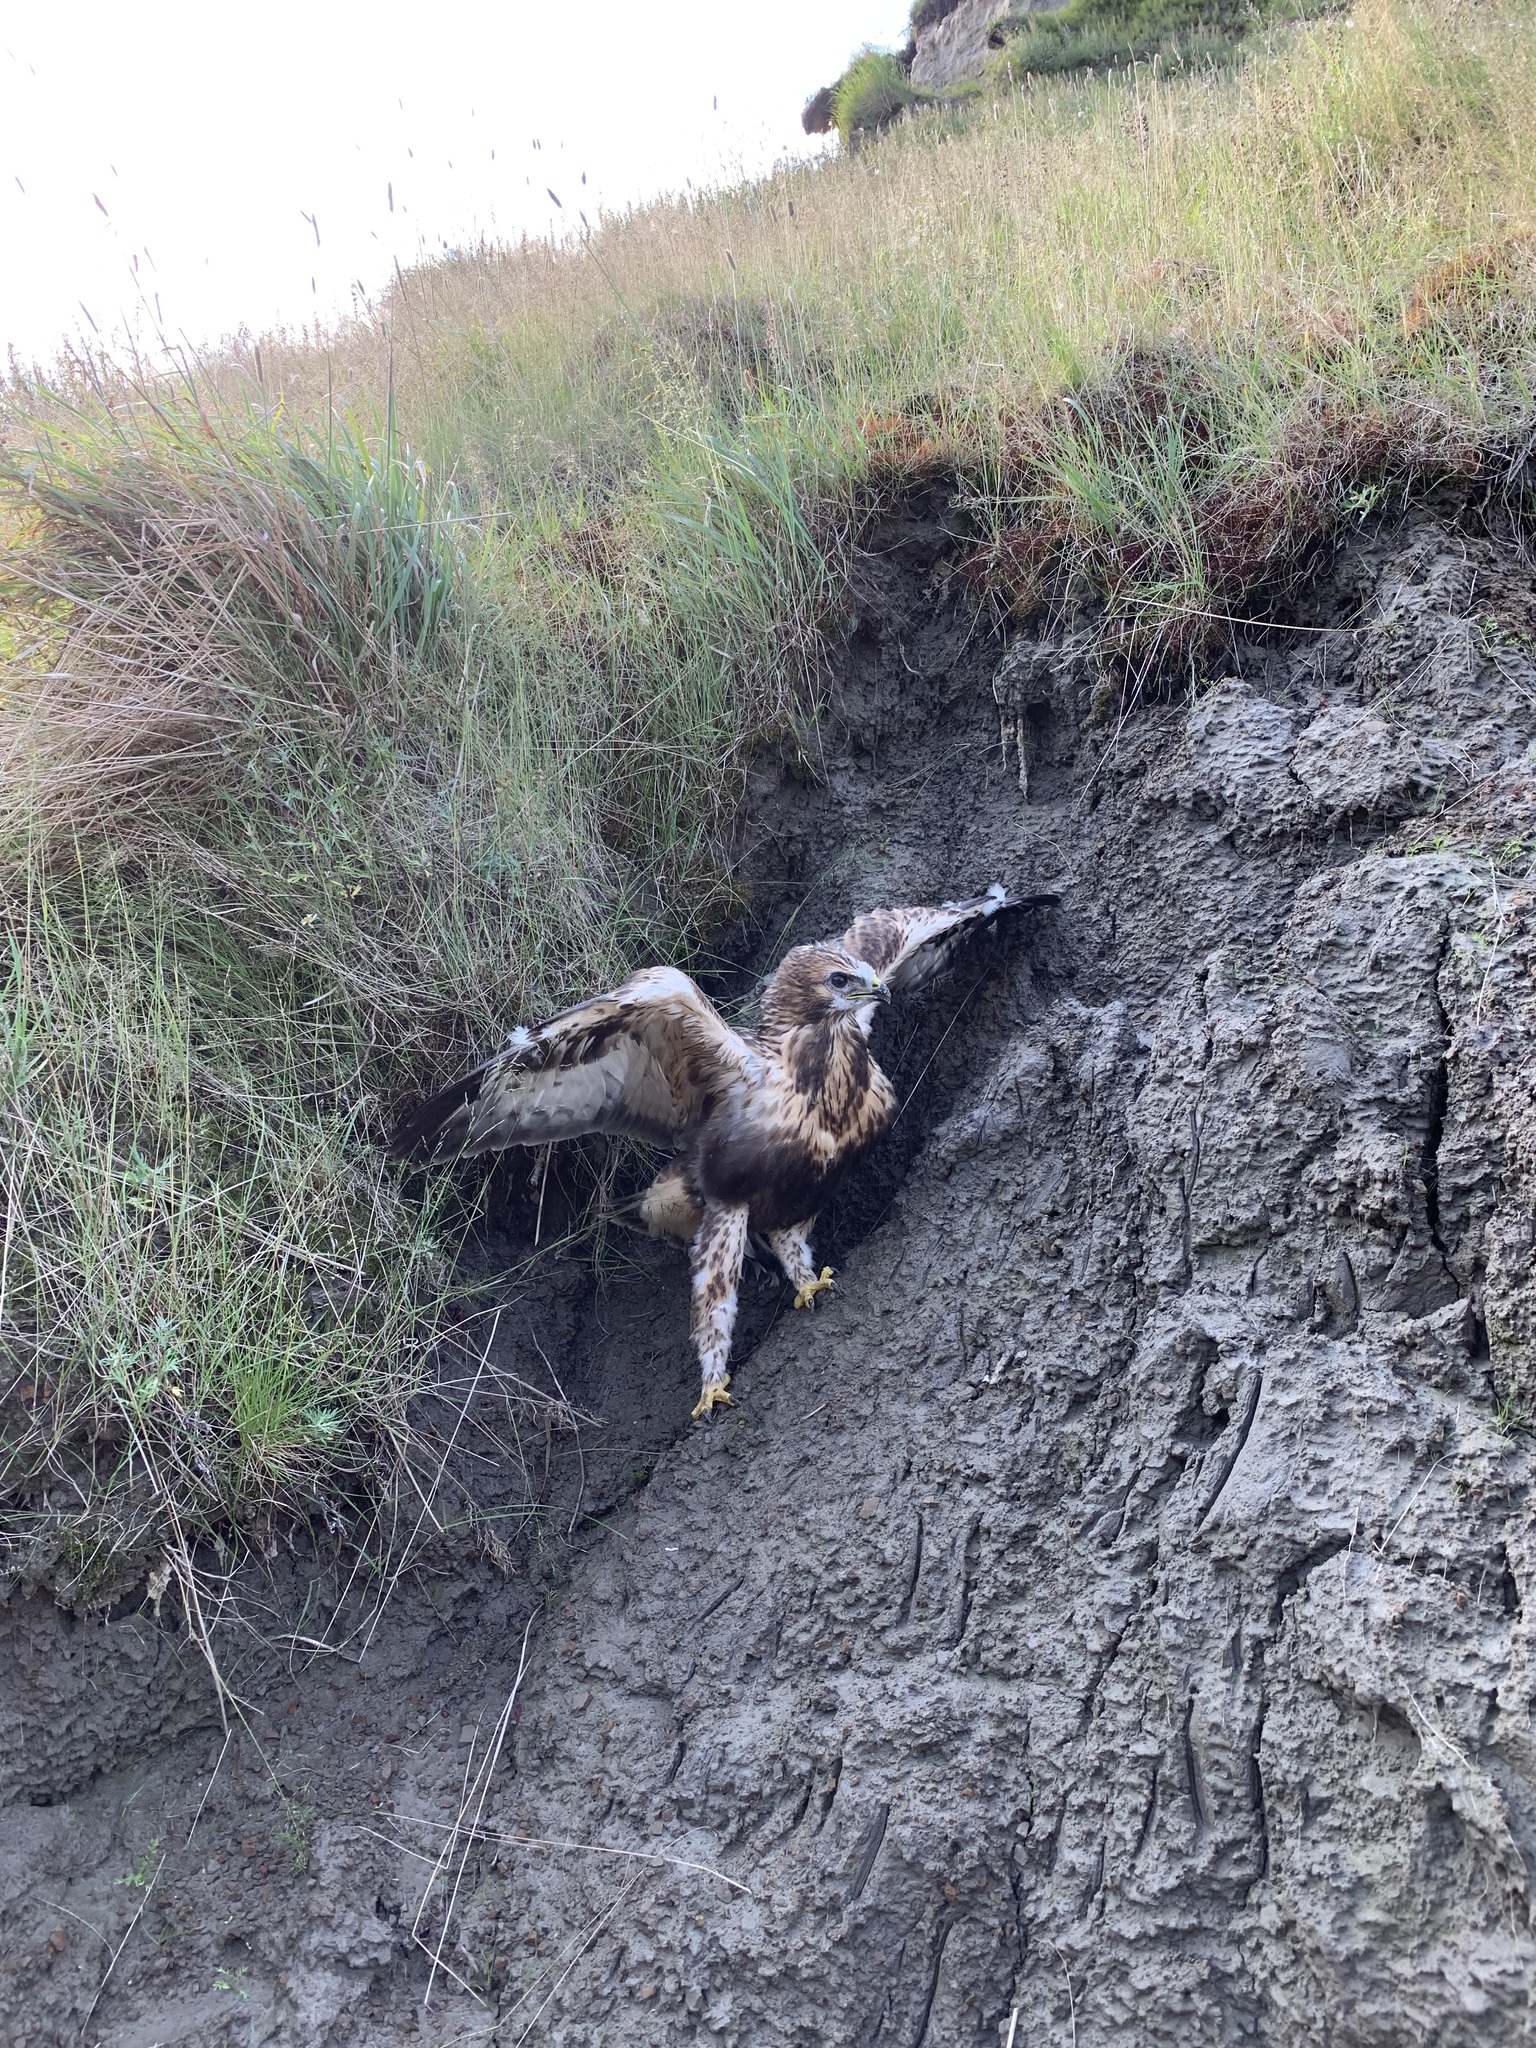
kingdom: Animalia
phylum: Chordata
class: Aves
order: Accipitriformes
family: Accipitridae
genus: Buteo
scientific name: Buteo lagopus
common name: Rough-legged buzzard
